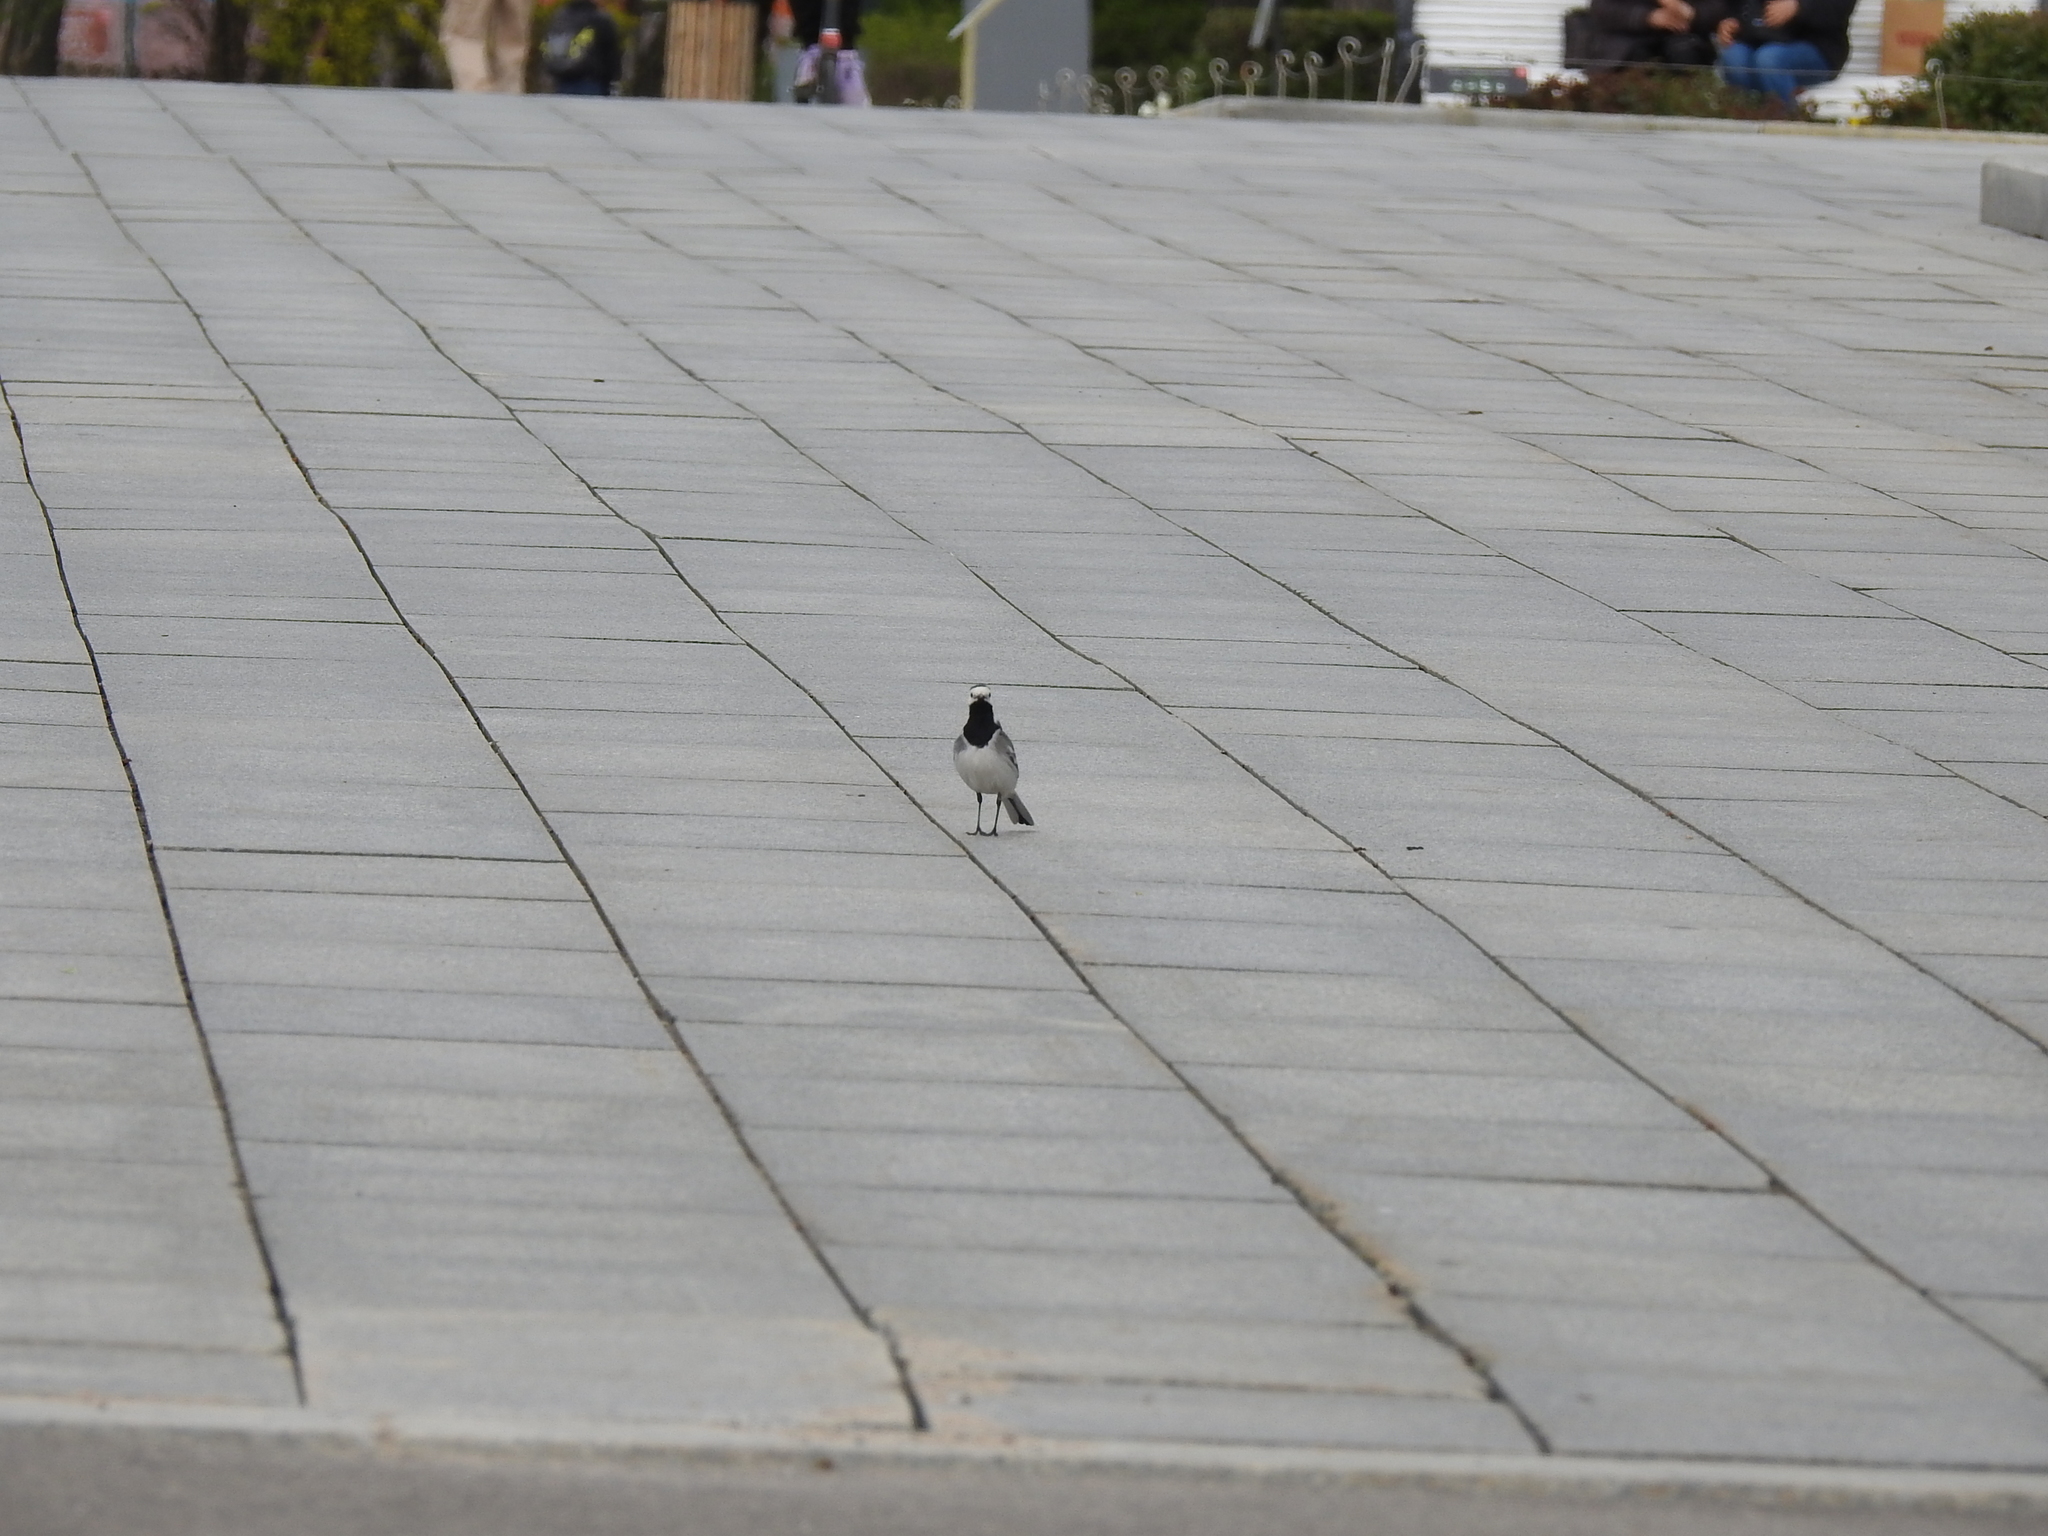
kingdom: Animalia
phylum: Chordata
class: Aves
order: Passeriformes
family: Motacillidae
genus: Motacilla
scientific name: Motacilla alba
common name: White wagtail
